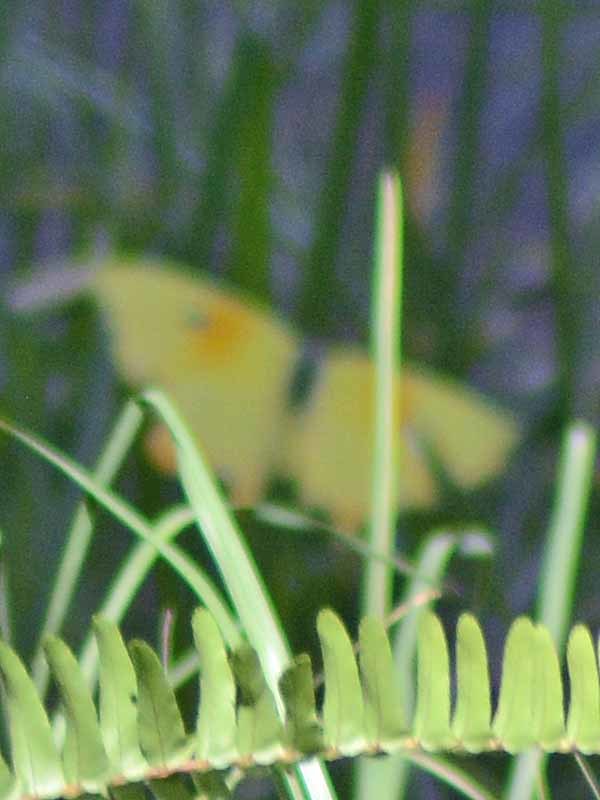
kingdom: Animalia
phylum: Arthropoda
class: Insecta
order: Lepidoptera
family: Pieridae
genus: Phoebis
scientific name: Phoebis philea
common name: Orange-barred giant sulphur
